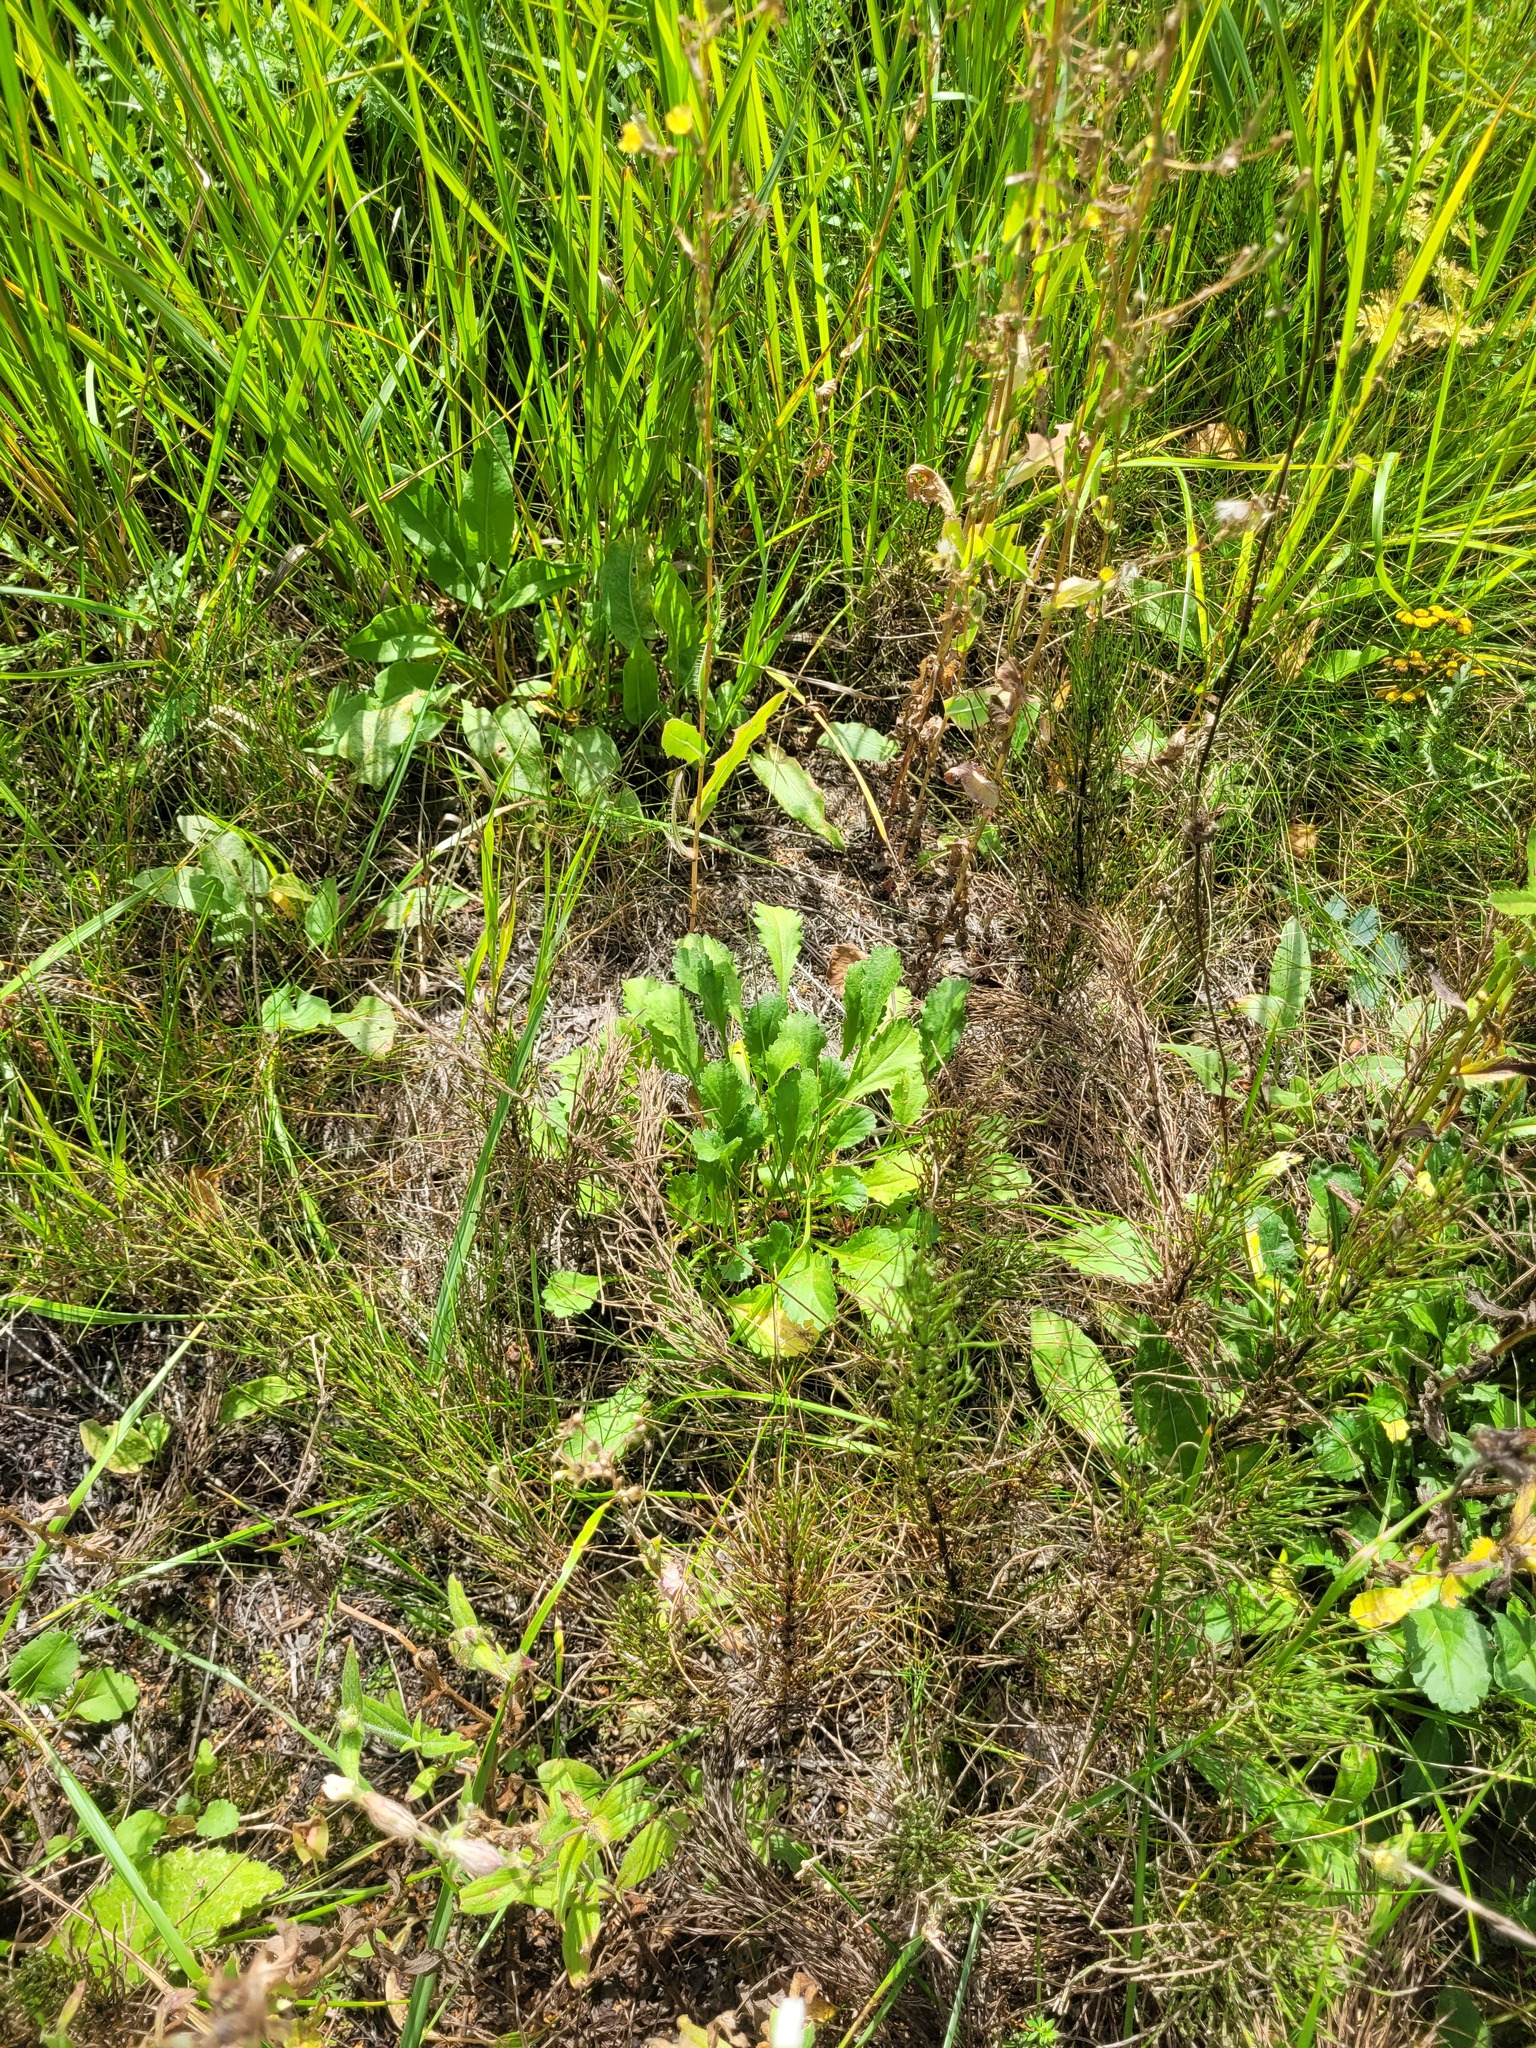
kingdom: Plantae
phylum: Tracheophyta
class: Magnoliopsida
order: Asterales
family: Asteraceae
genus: Leucanthemum
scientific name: Leucanthemum vulgare
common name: Oxeye daisy
